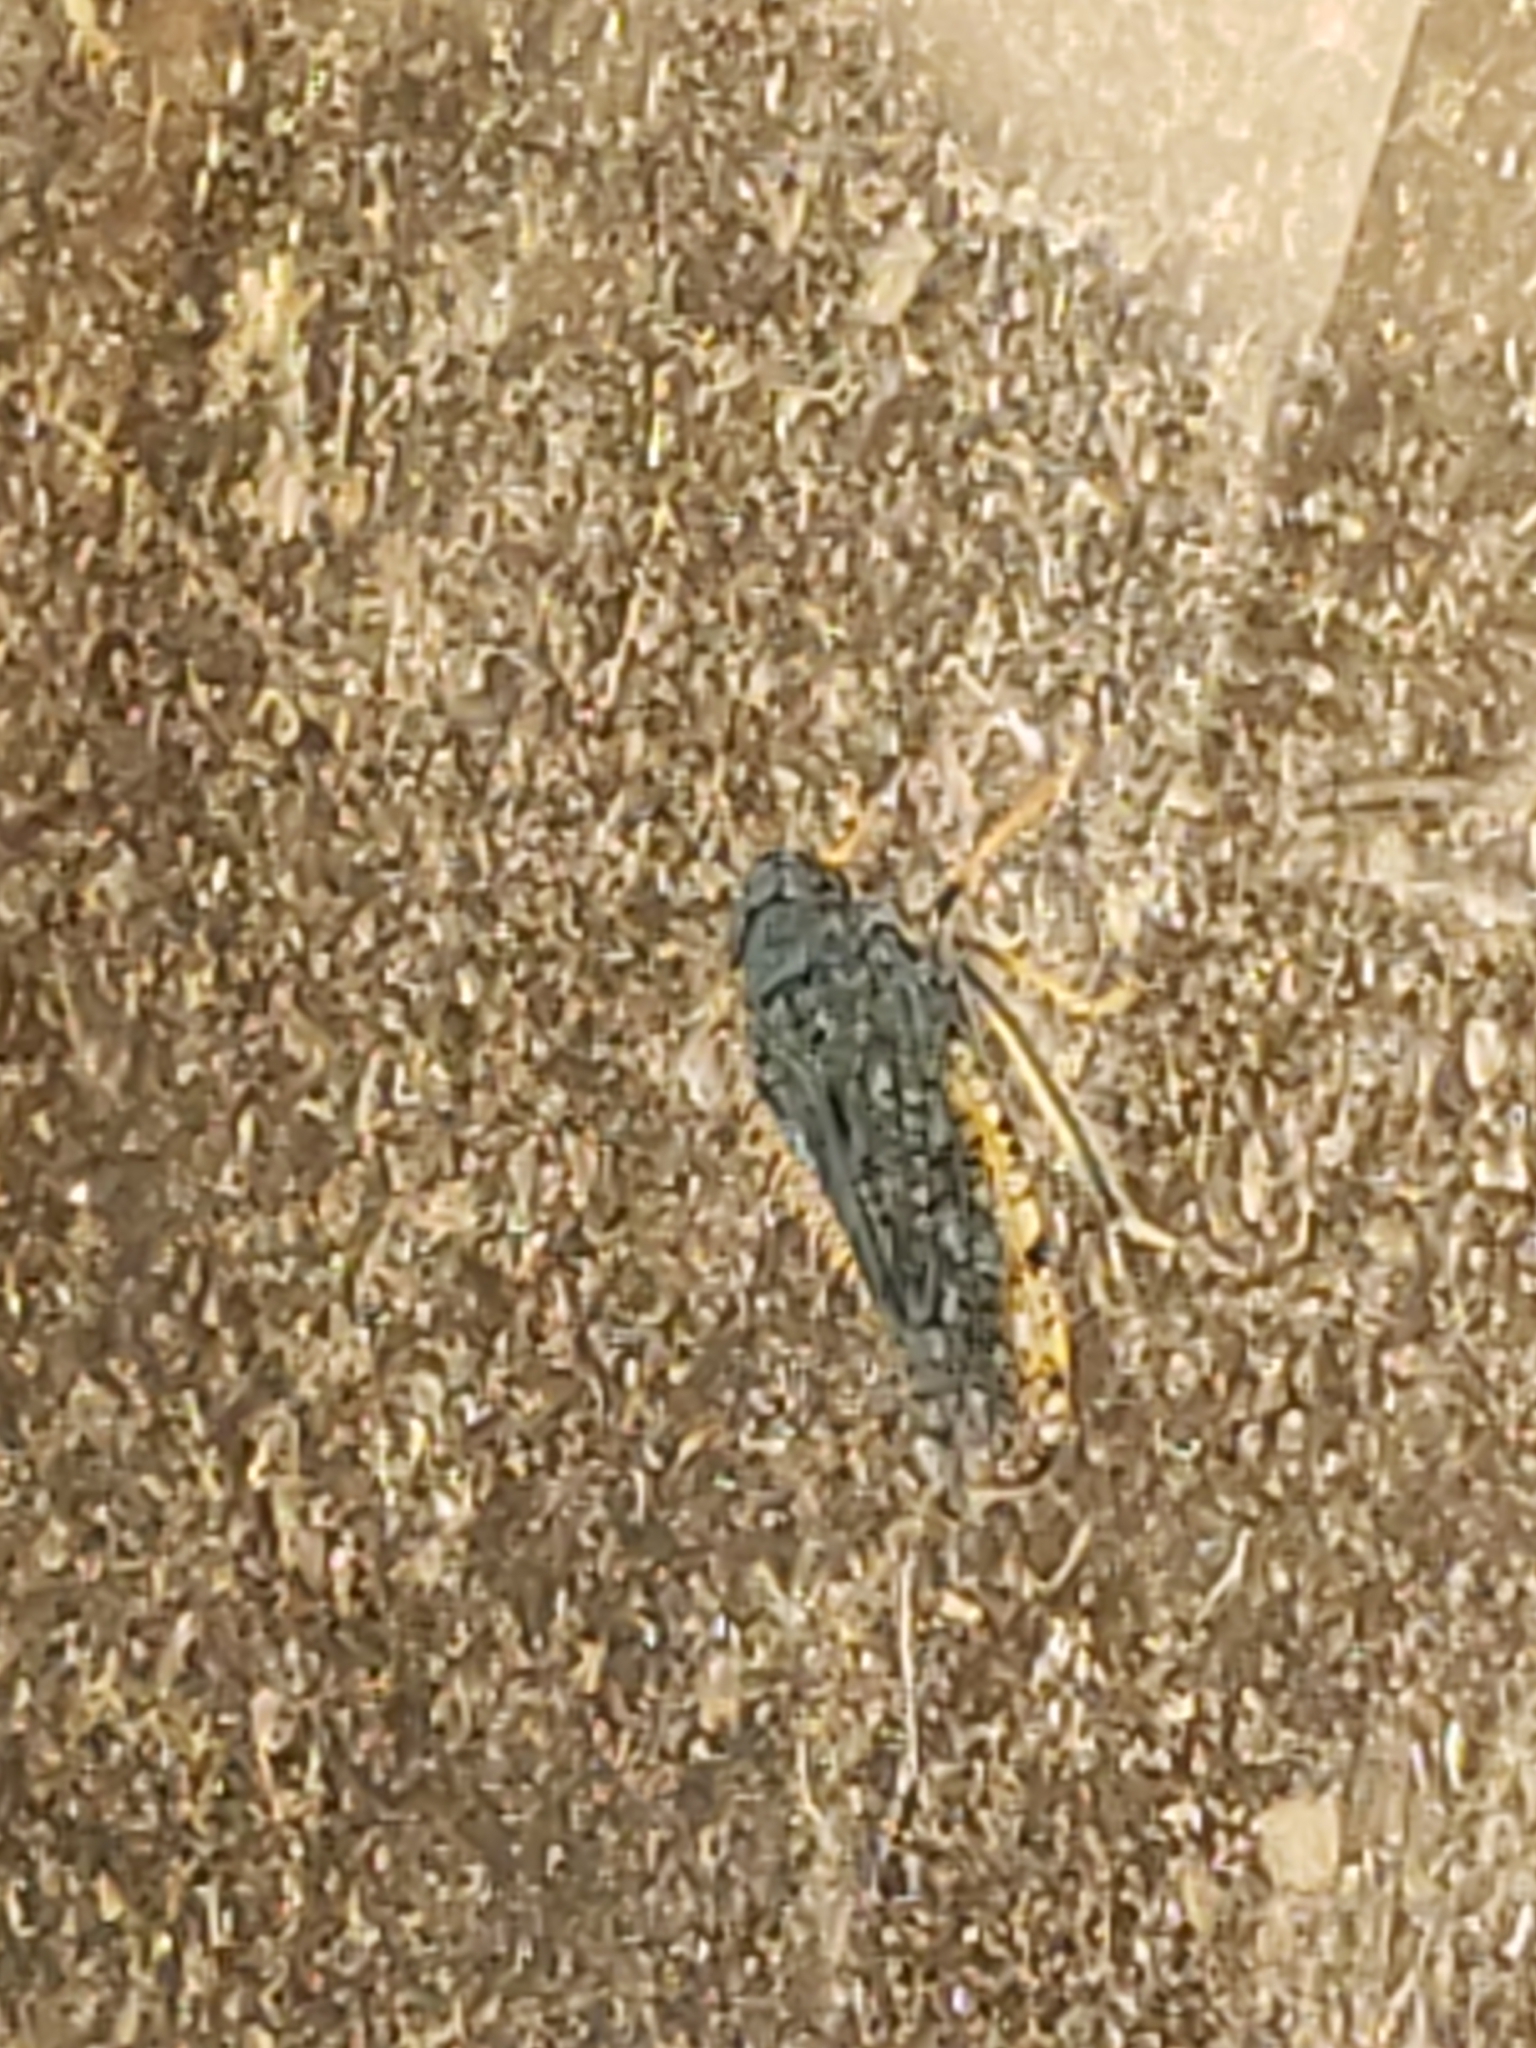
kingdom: Animalia
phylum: Arthropoda
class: Insecta
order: Hemiptera
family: Cicadellidae
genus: Orientus
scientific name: Orientus ishidae
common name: Japanese leafhopper
